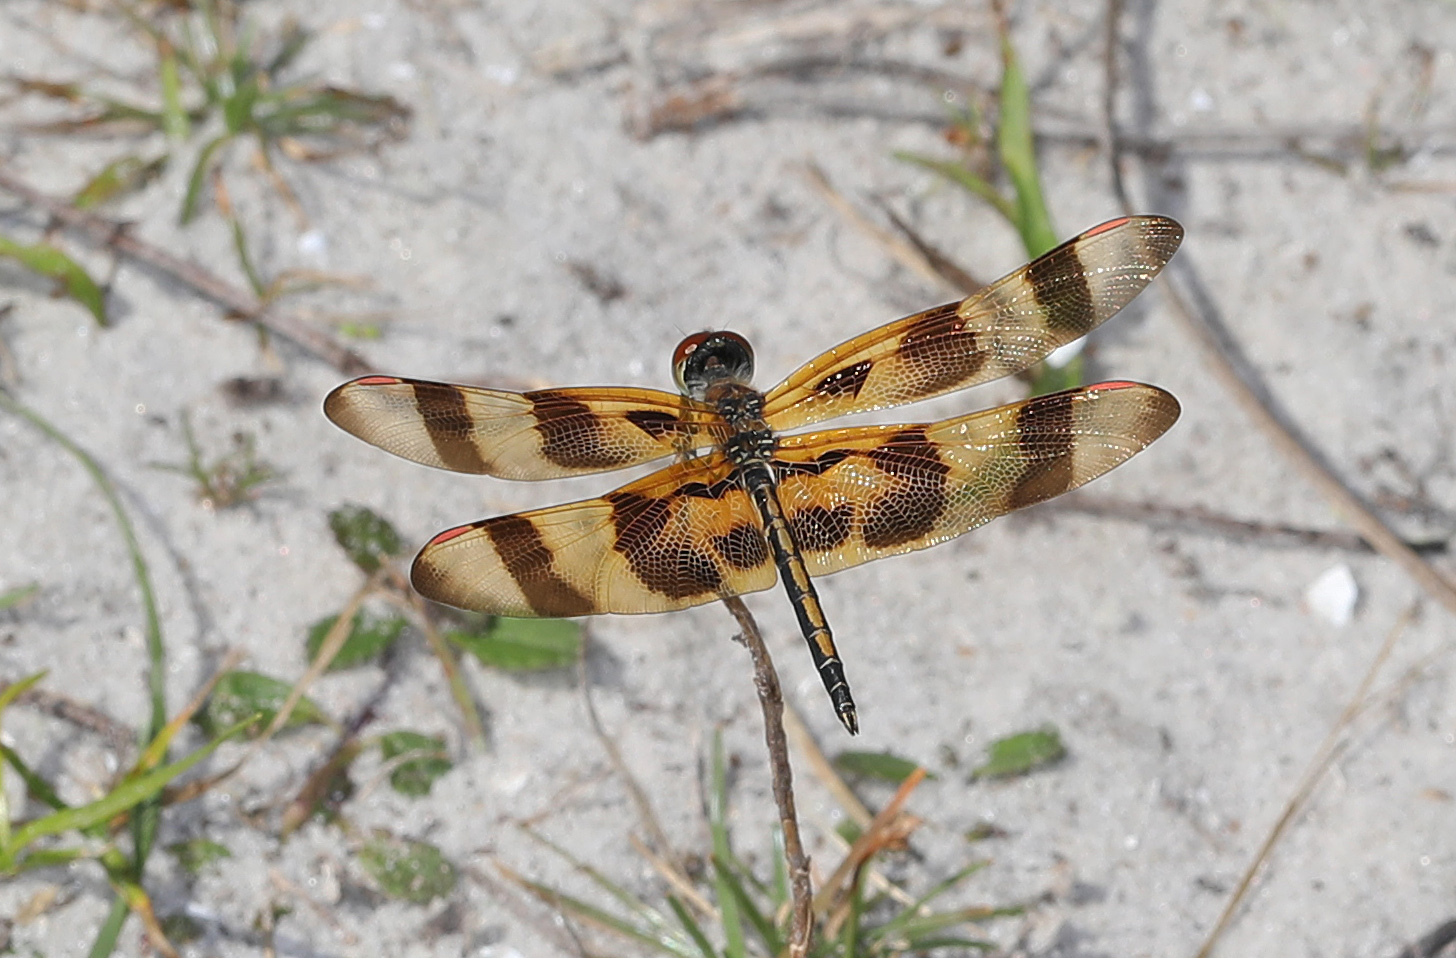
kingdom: Animalia
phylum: Arthropoda
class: Insecta
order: Odonata
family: Libellulidae
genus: Celithemis
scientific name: Celithemis eponina
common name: Halloween pennant
